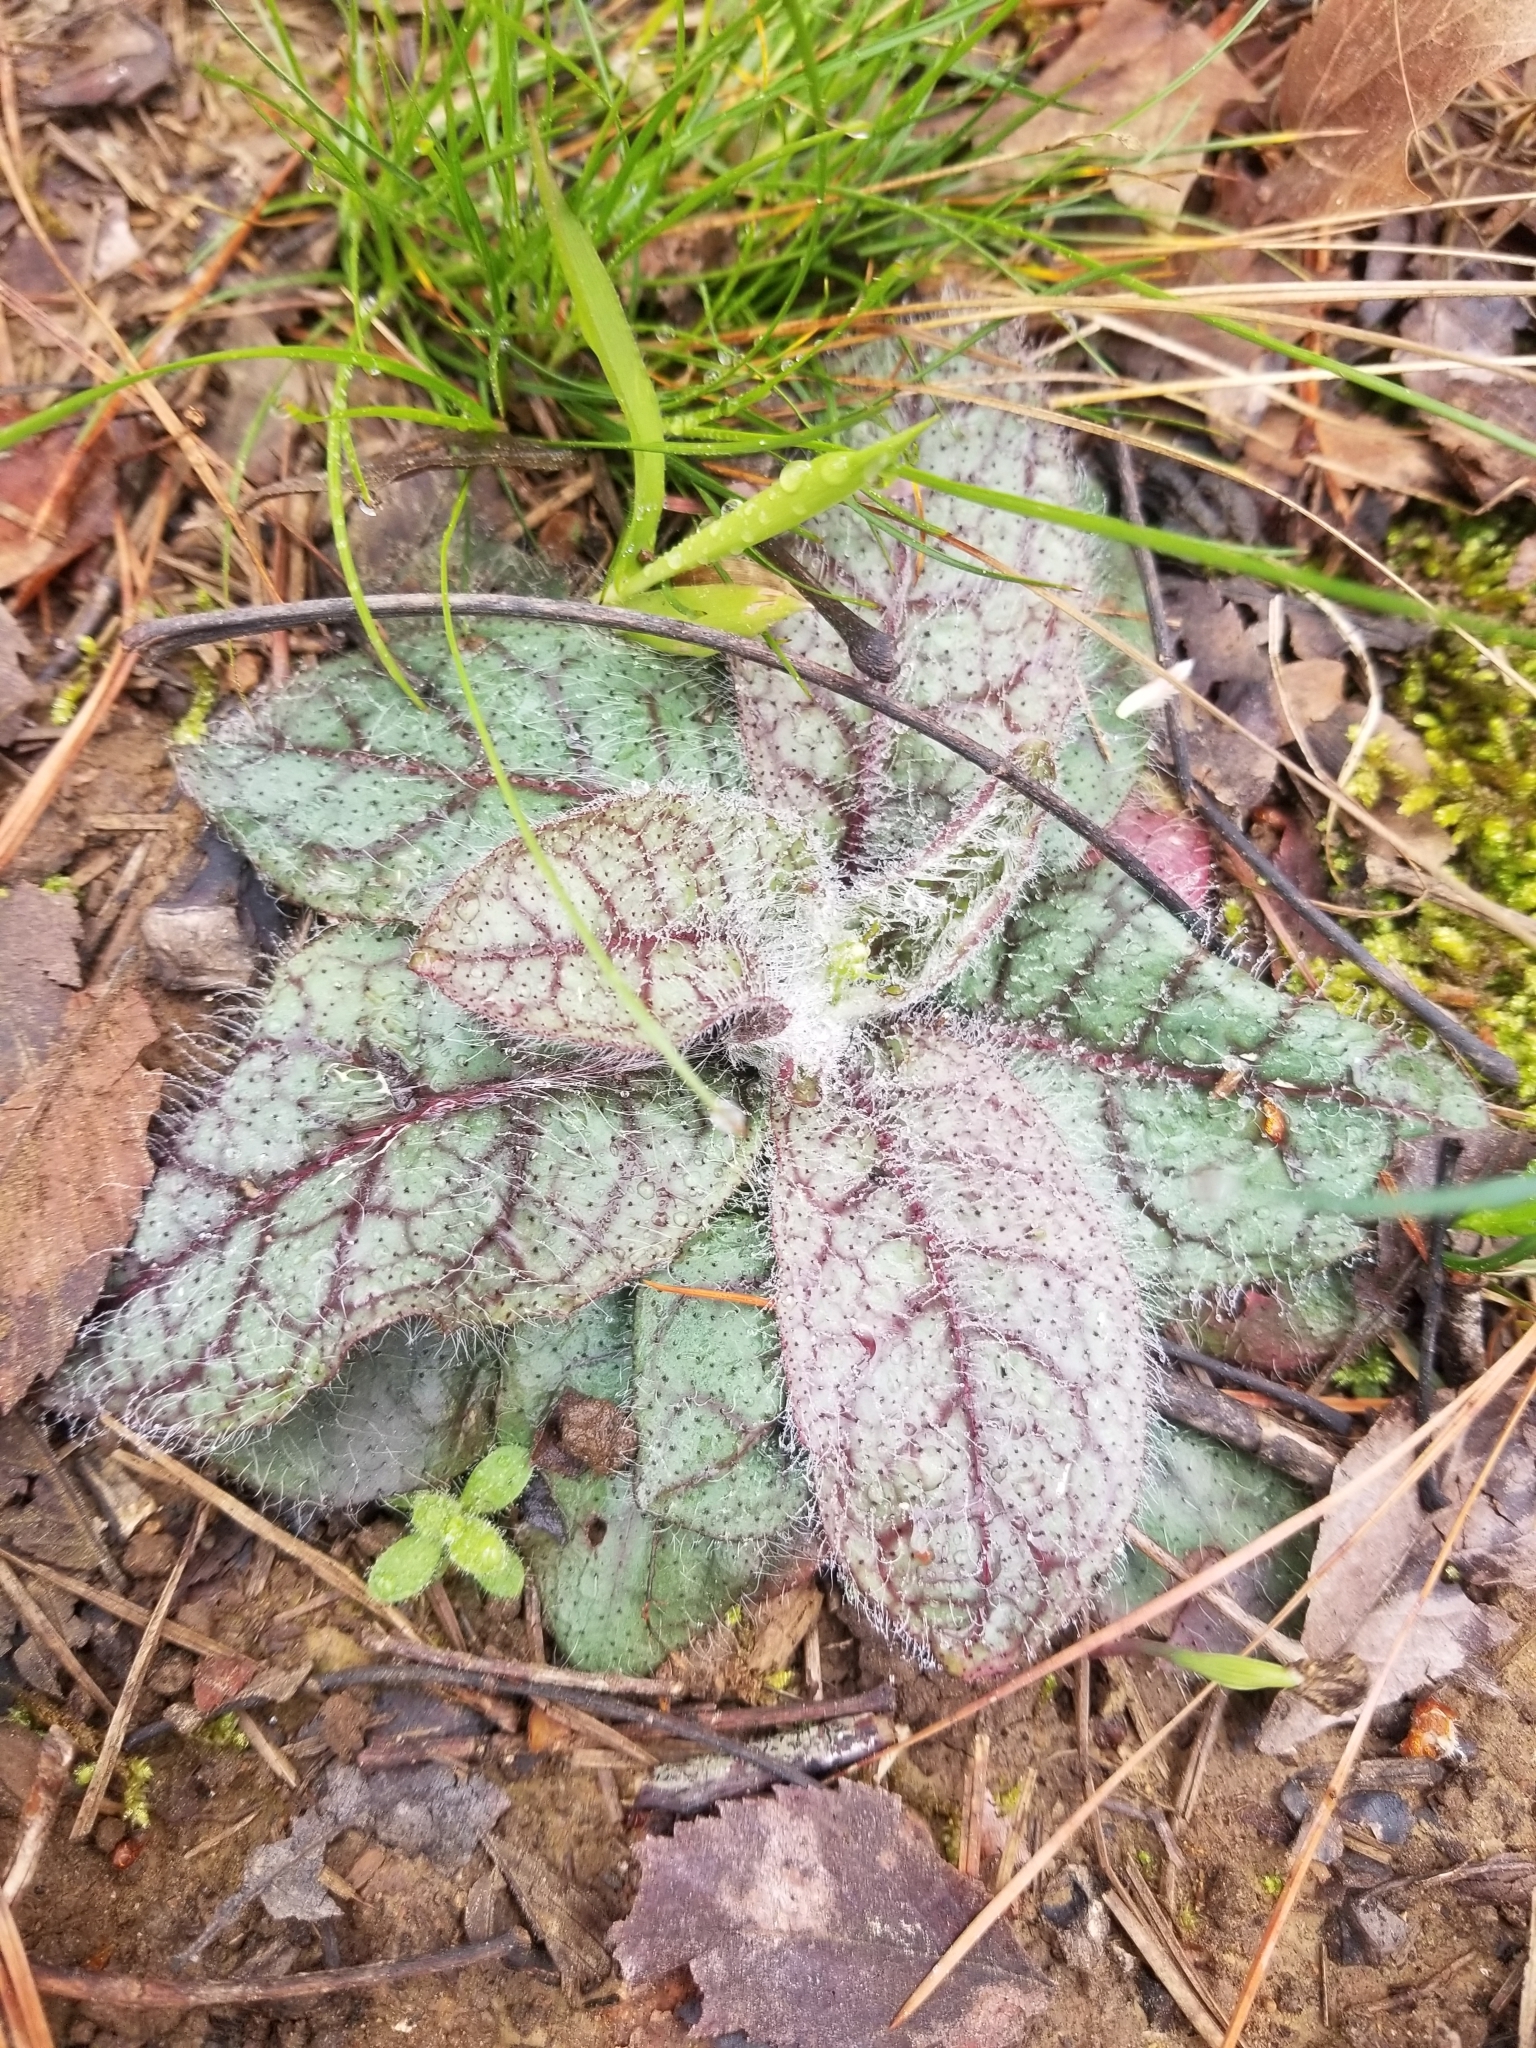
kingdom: Plantae
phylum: Tracheophyta
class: Magnoliopsida
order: Asterales
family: Asteraceae
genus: Hieracium
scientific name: Hieracium venosum
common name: Rattlesnake hawkweed
